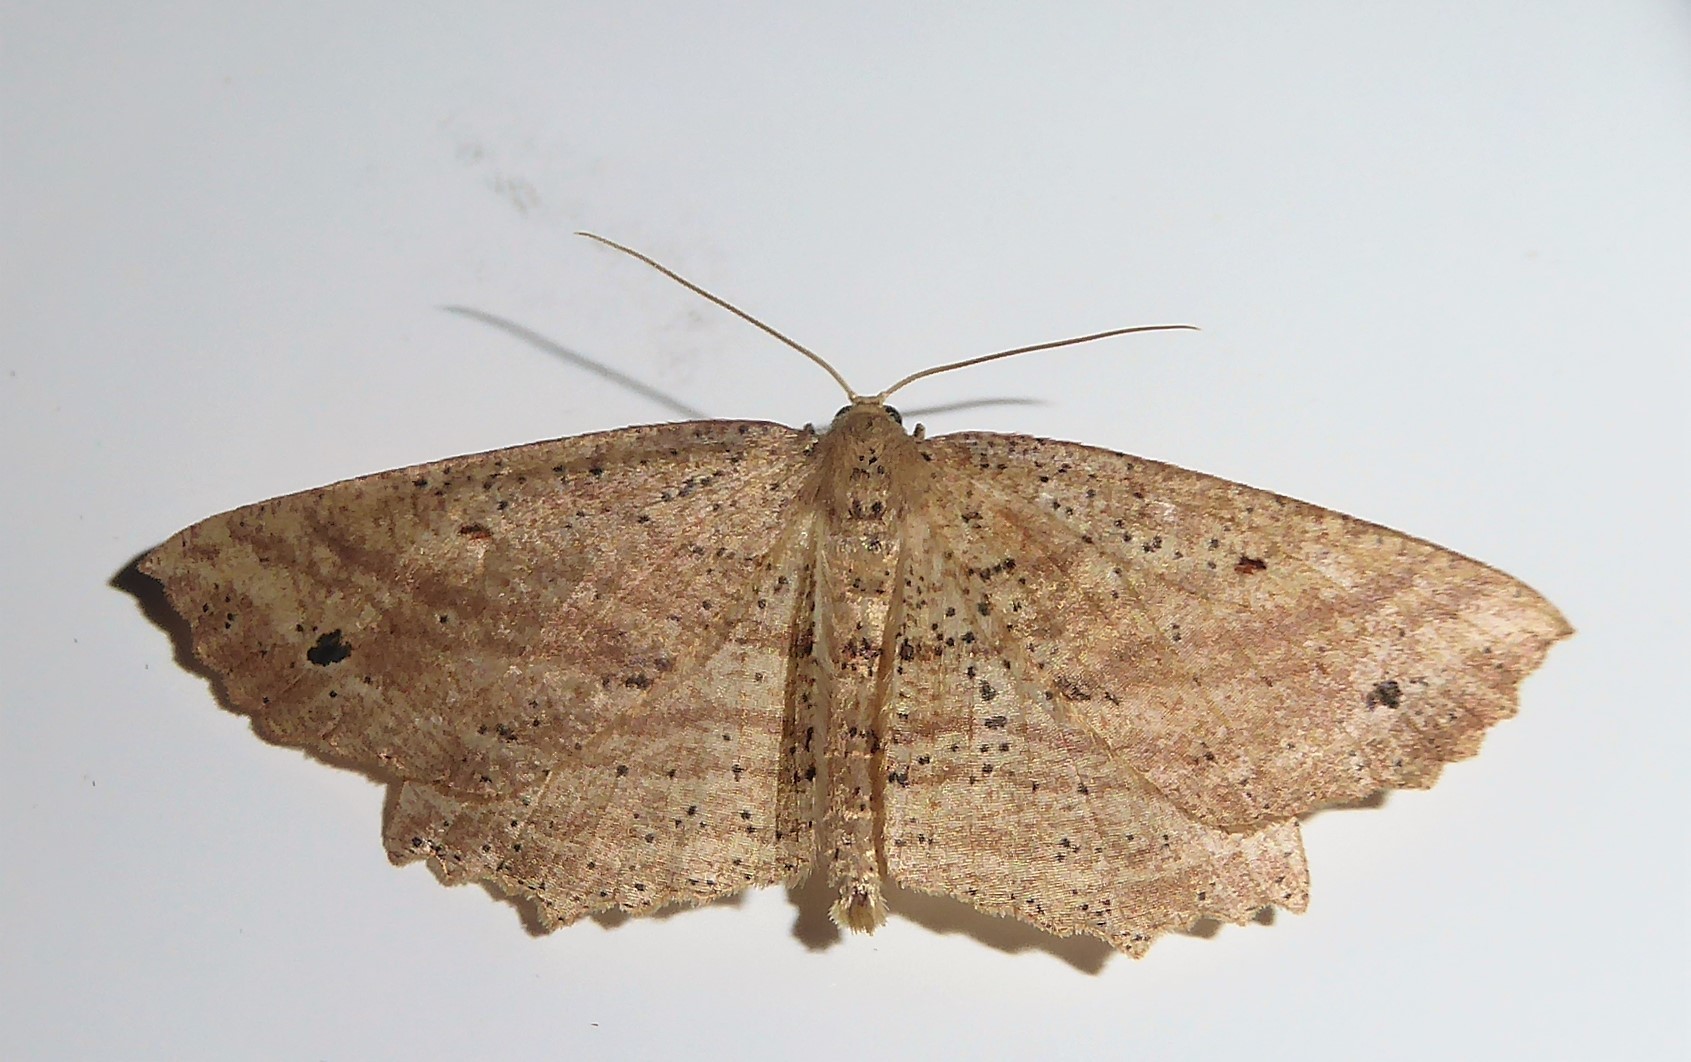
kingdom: Animalia
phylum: Arthropoda
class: Insecta
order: Lepidoptera
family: Geometridae
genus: Xyridacma
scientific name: Xyridacma veronicae
